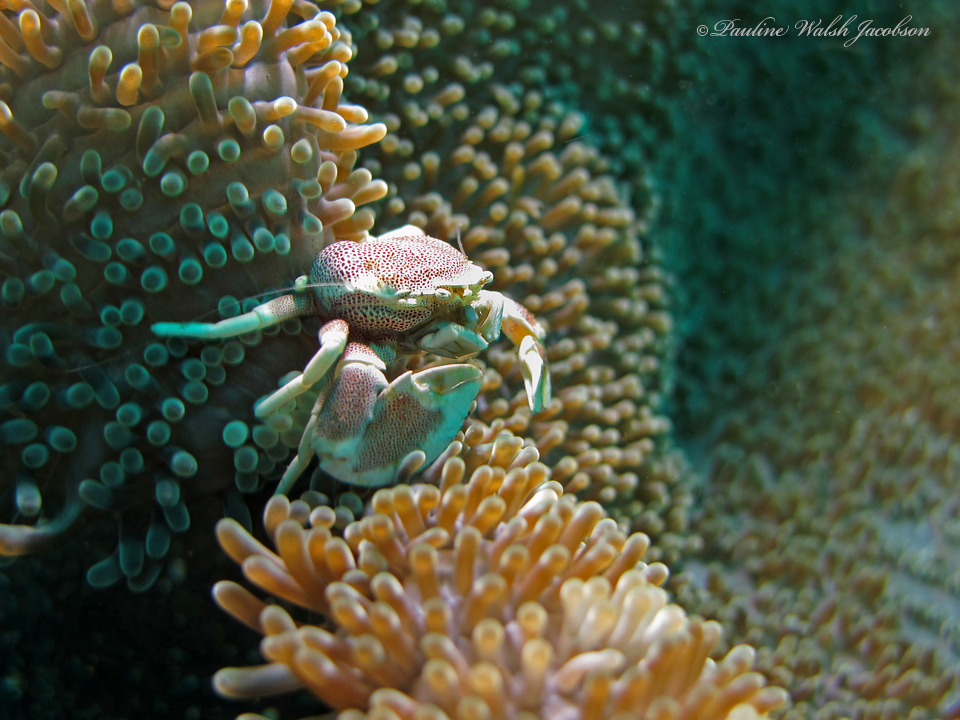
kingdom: Animalia
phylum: Arthropoda
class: Malacostraca
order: Decapoda
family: Porcellanidae
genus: Neopetrolisthes
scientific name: Neopetrolisthes maculatus
